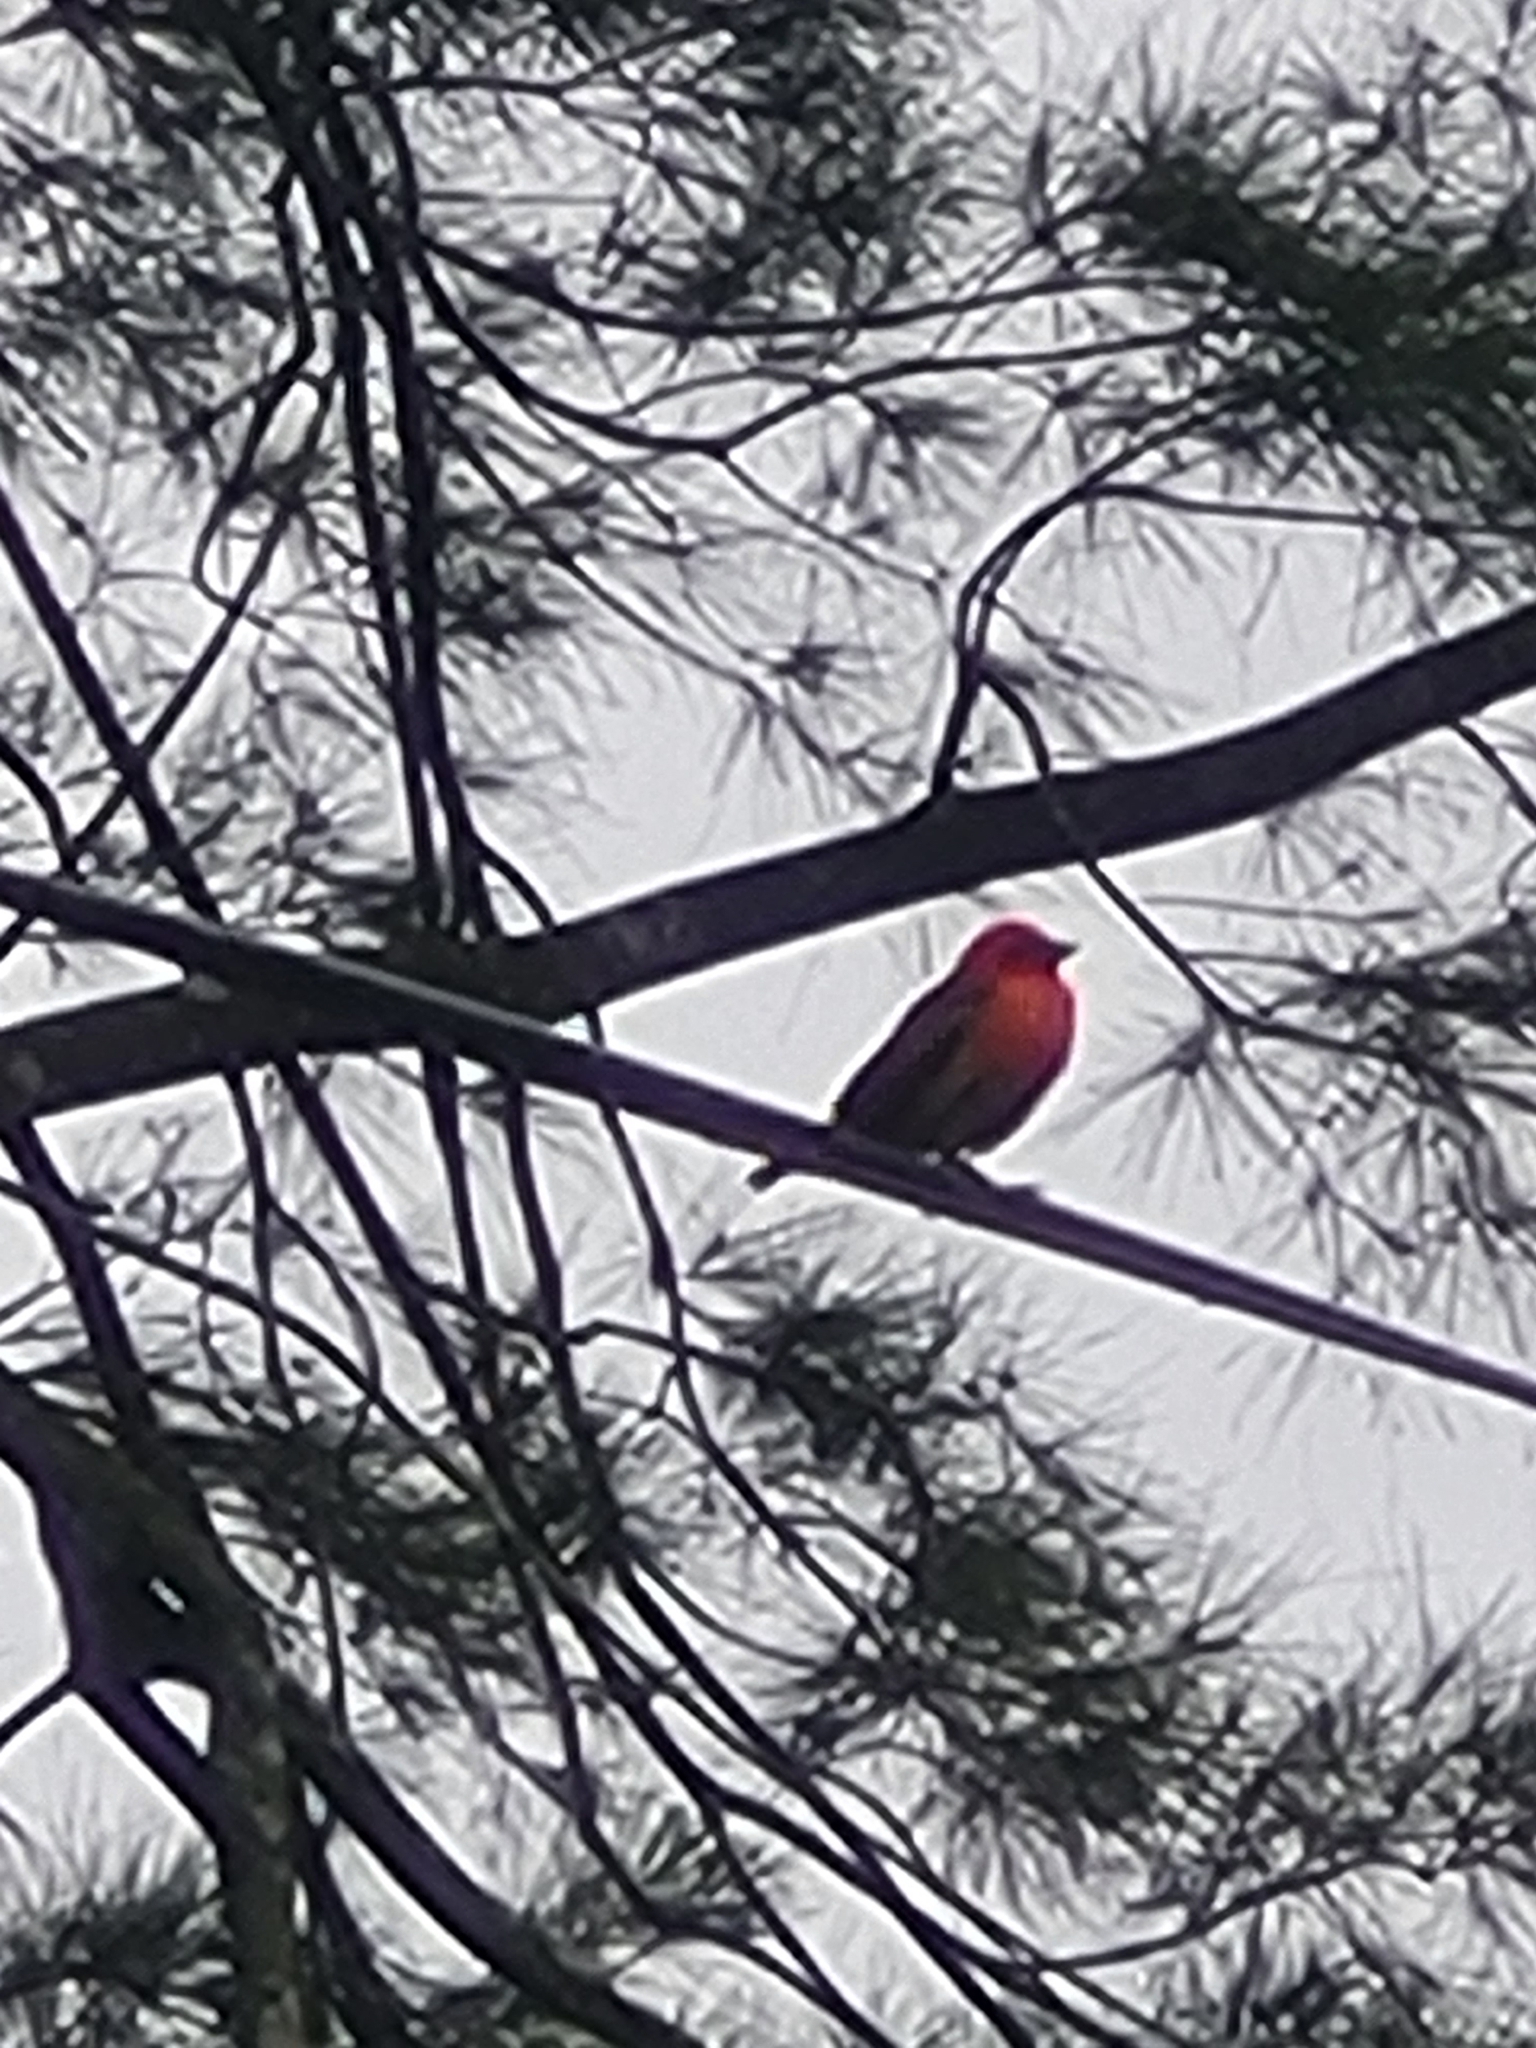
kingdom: Animalia
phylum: Chordata
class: Aves
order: Passeriformes
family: Ploceidae
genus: Foudia
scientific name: Foudia madagascariensis
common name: Red fody
